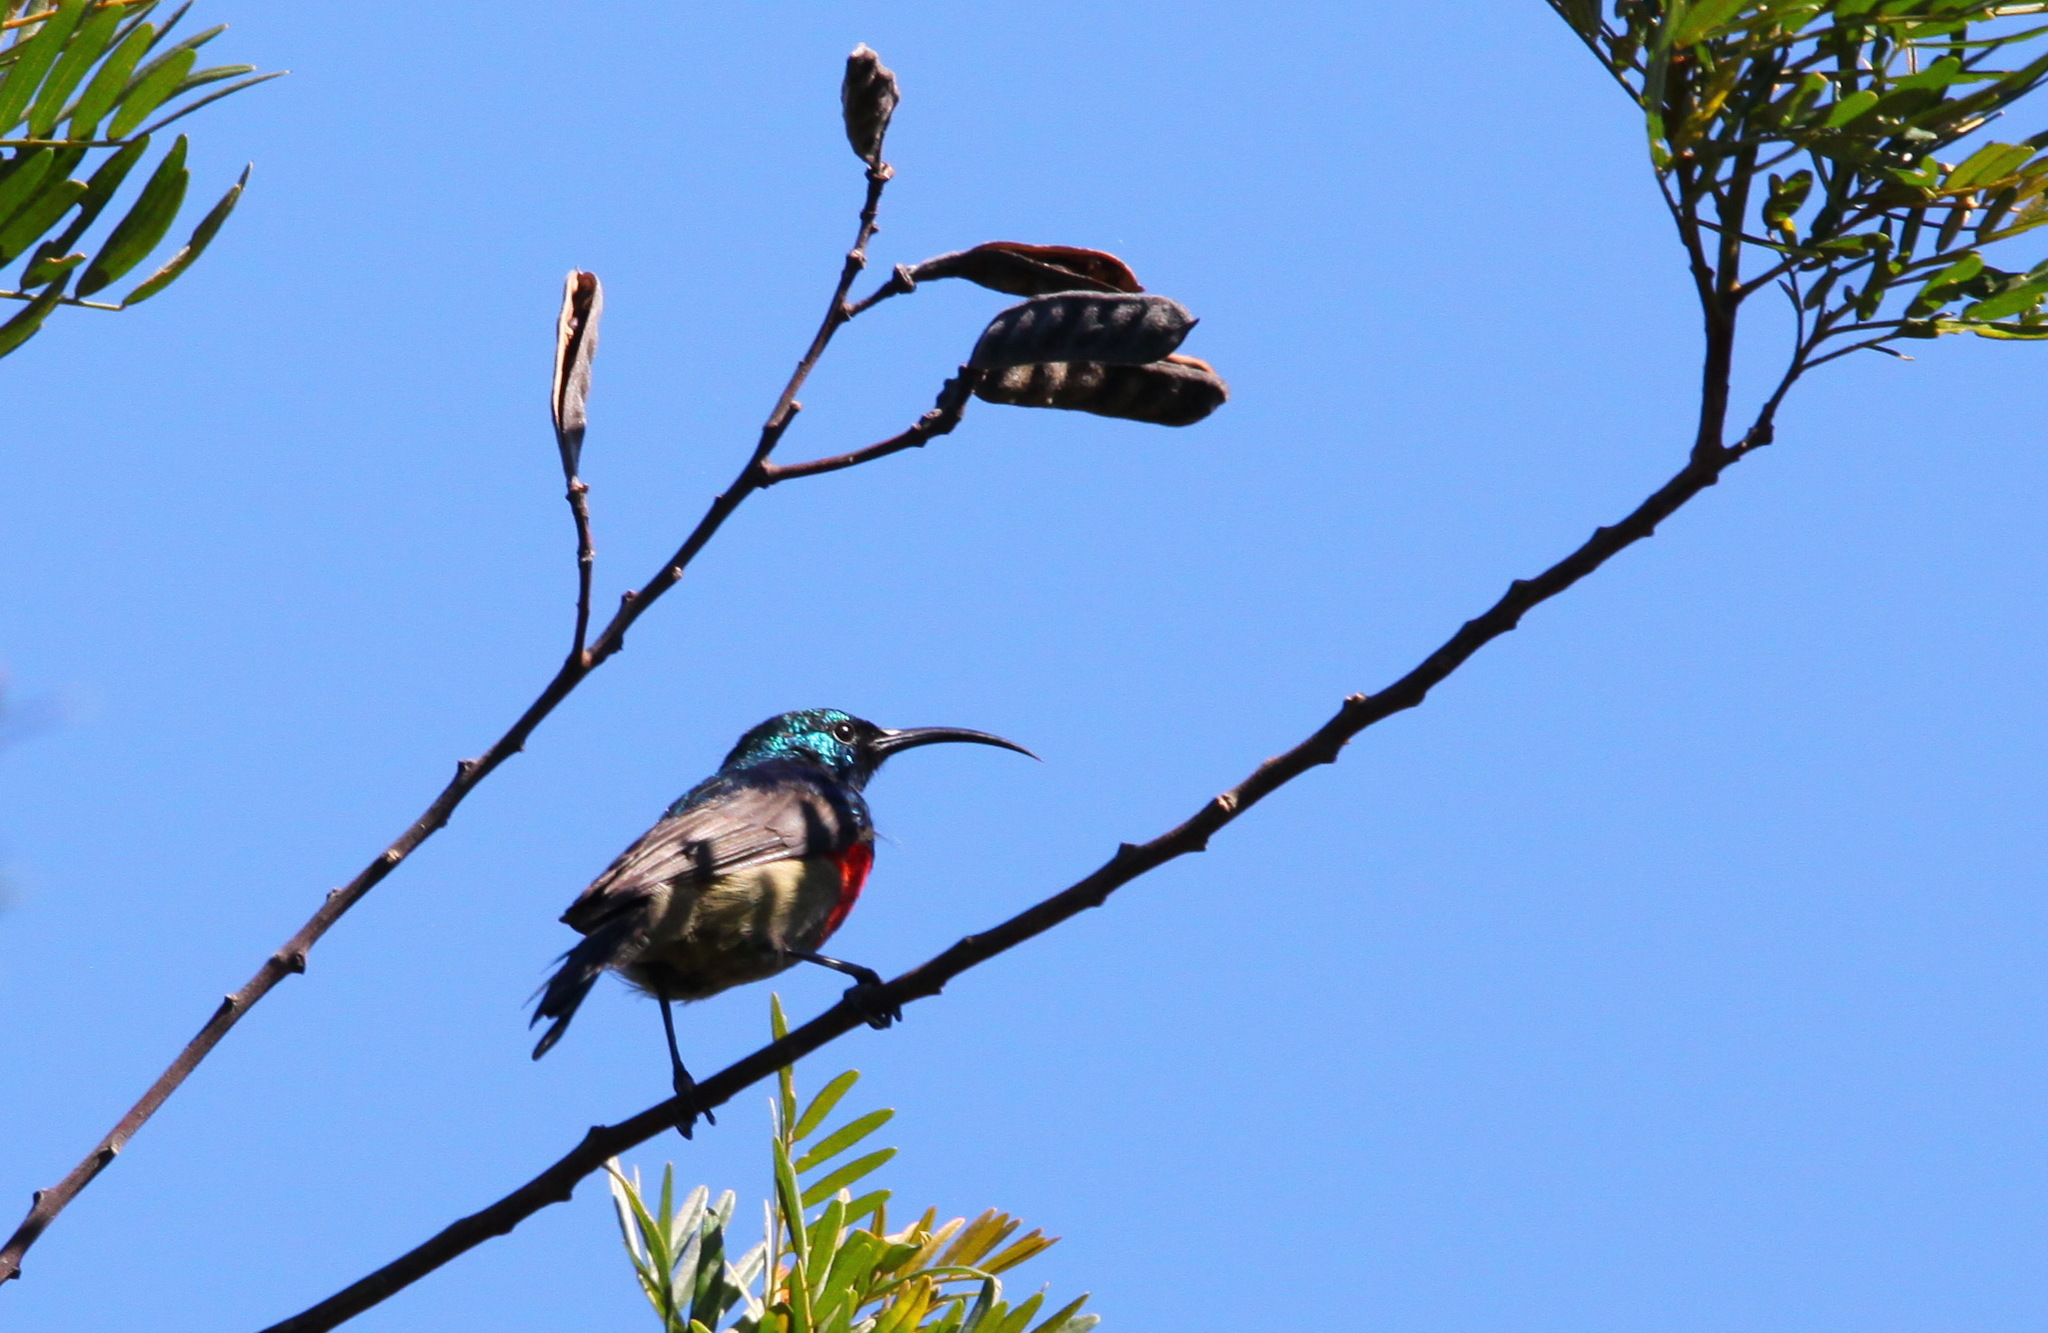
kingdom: Animalia
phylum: Chordata
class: Aves
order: Passeriformes
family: Nectariniidae
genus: Cinnyris
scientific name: Cinnyris afer
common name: Greater double-collared sunbird
